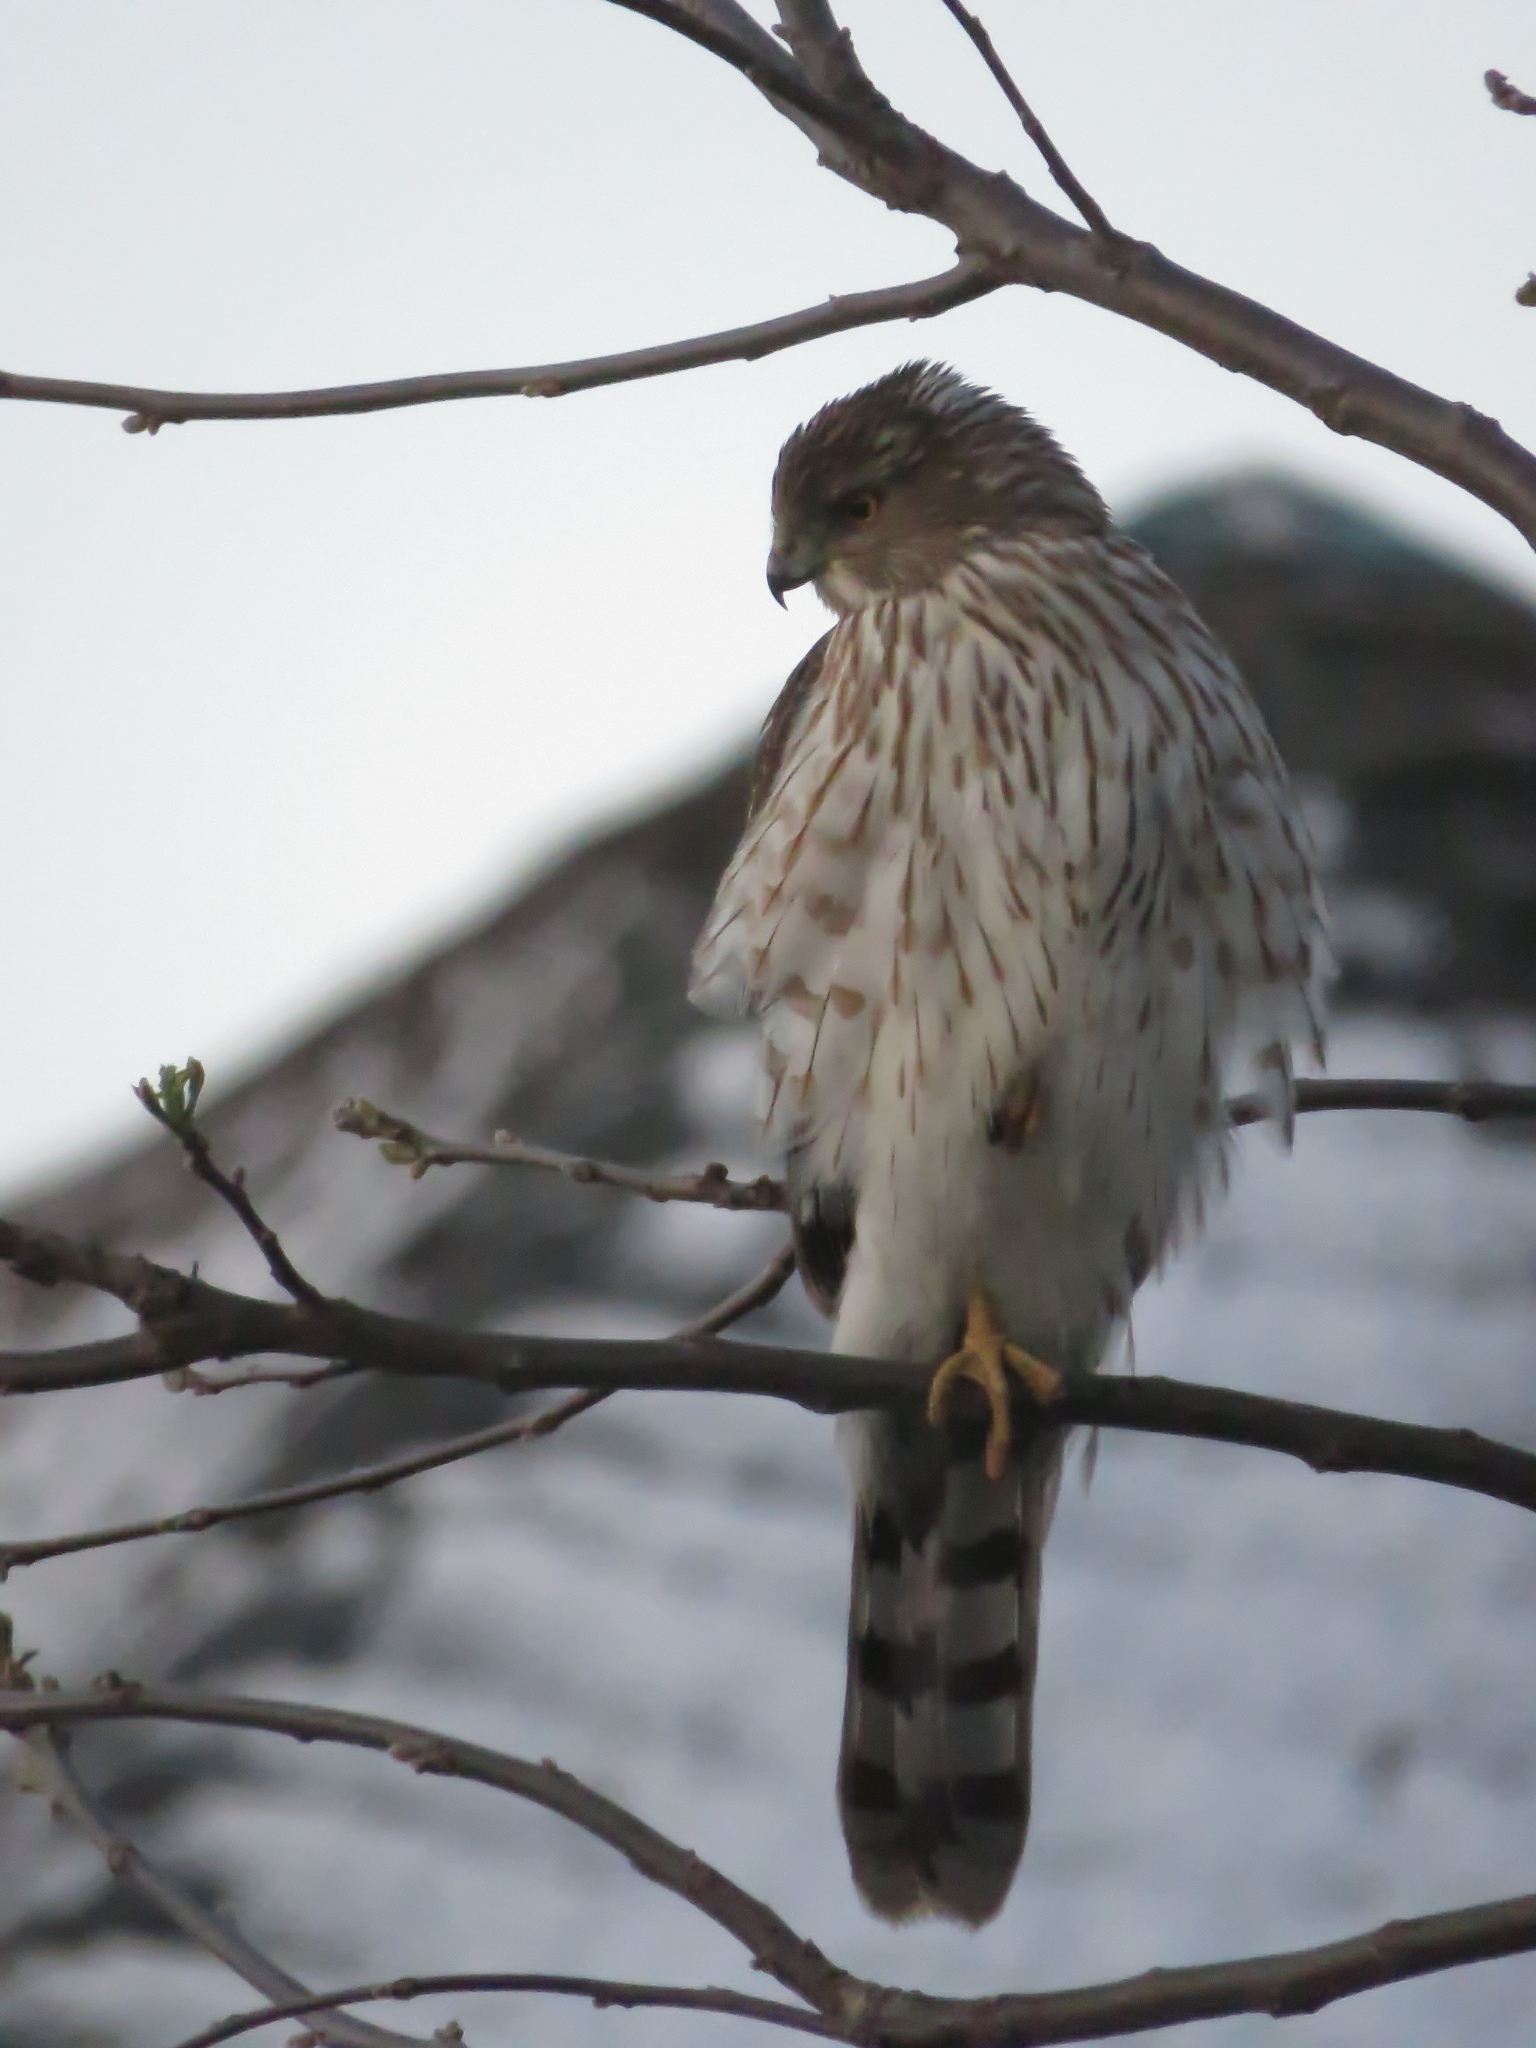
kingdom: Animalia
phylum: Chordata
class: Aves
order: Accipitriformes
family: Accipitridae
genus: Accipiter
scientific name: Accipiter cooperii
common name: Cooper's hawk
